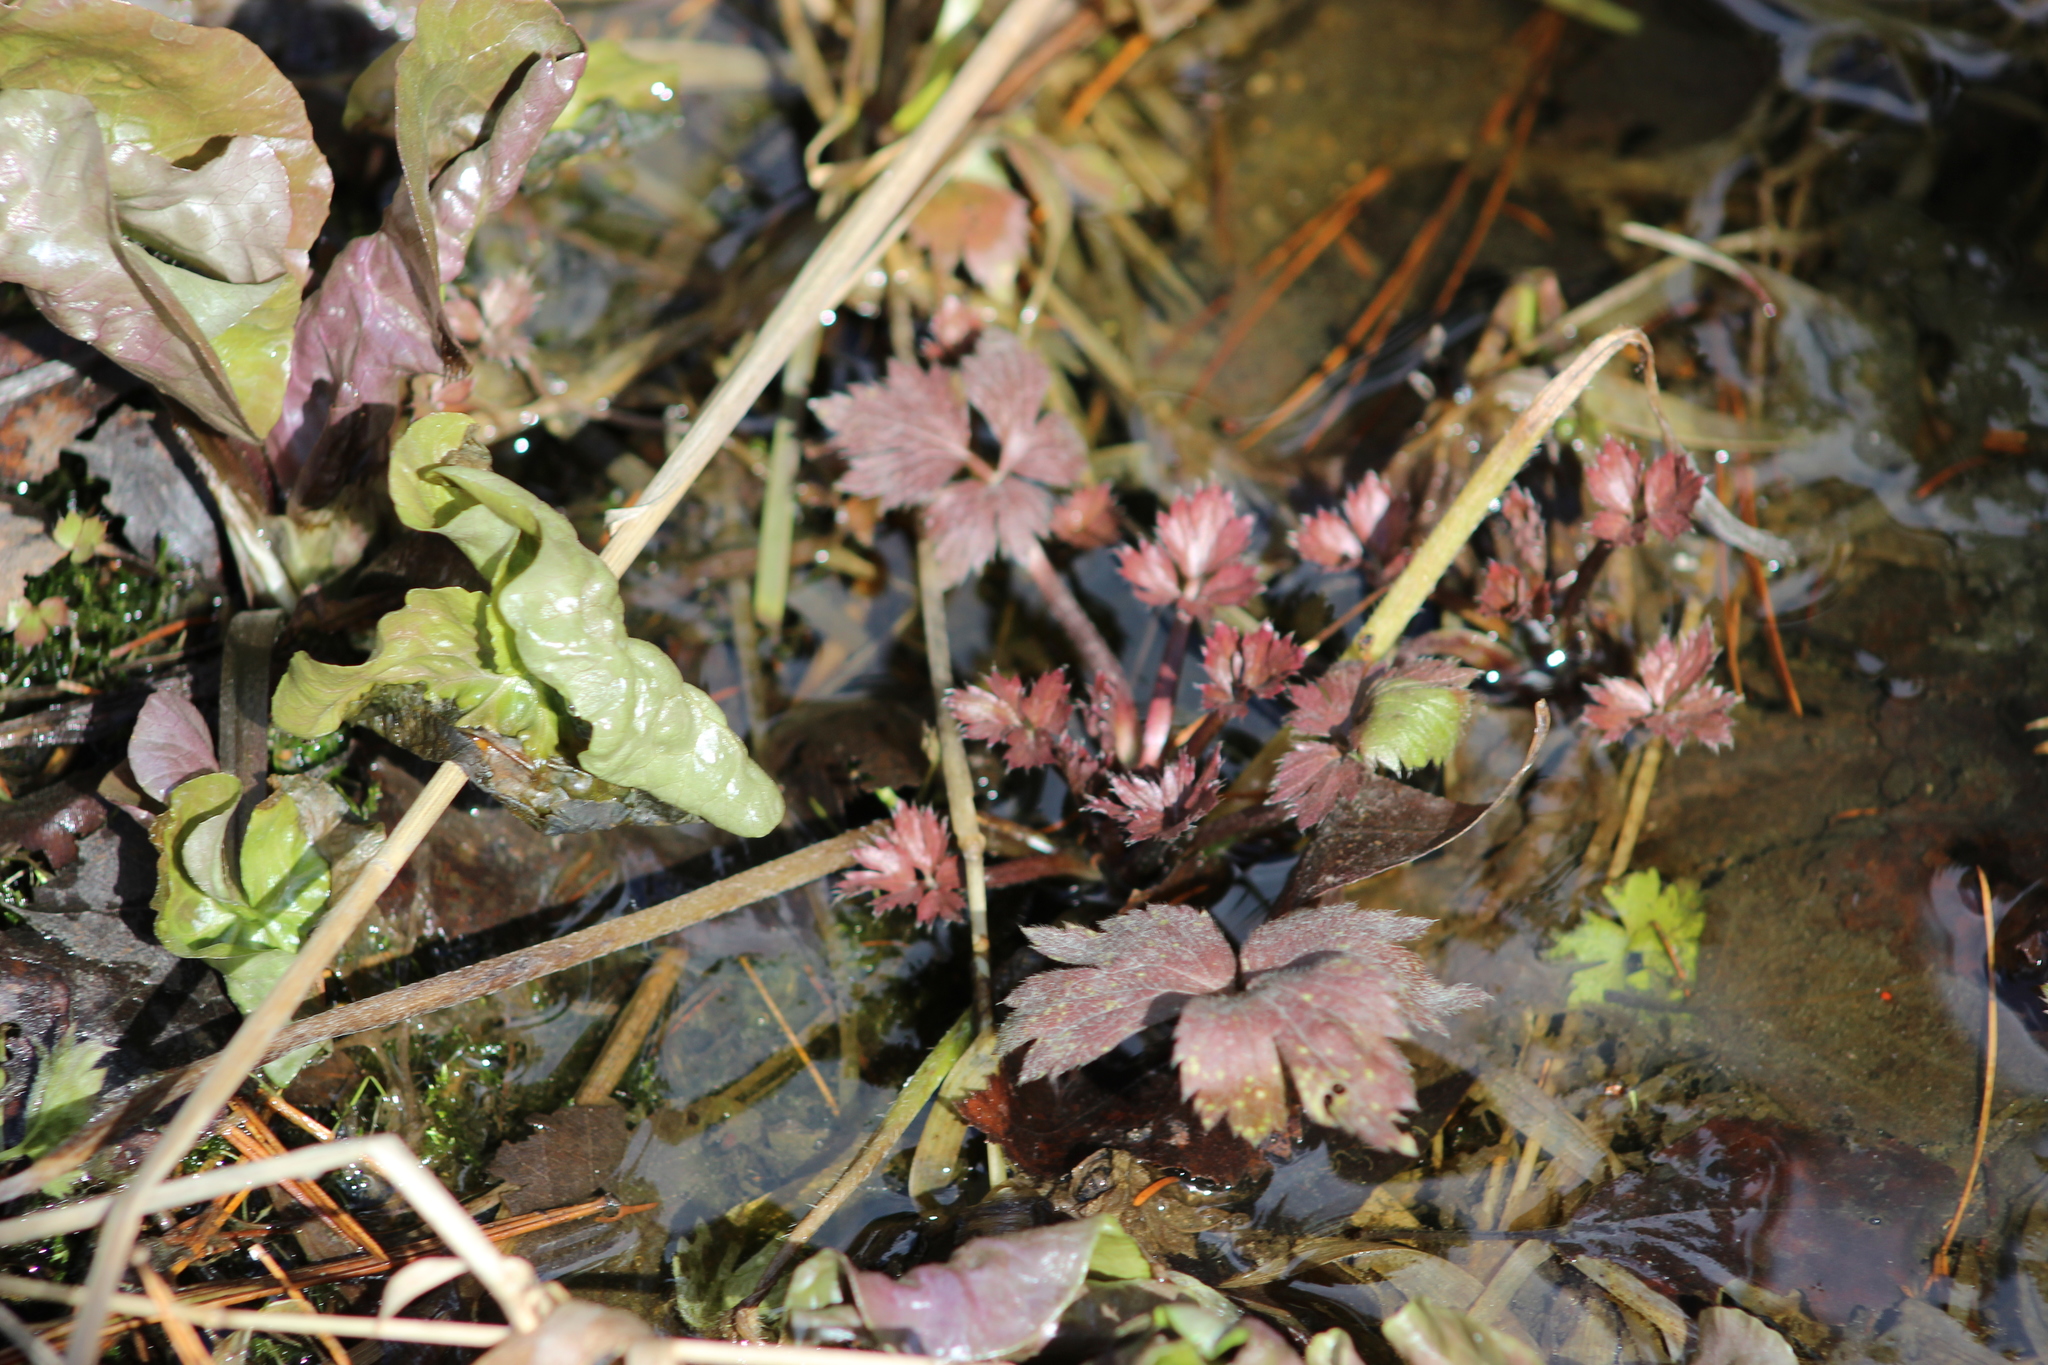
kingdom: Plantae
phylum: Tracheophyta
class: Magnoliopsida
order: Ranunculales
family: Ranunculaceae
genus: Ranunculus
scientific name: Ranunculus repens
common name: Creeping buttercup
